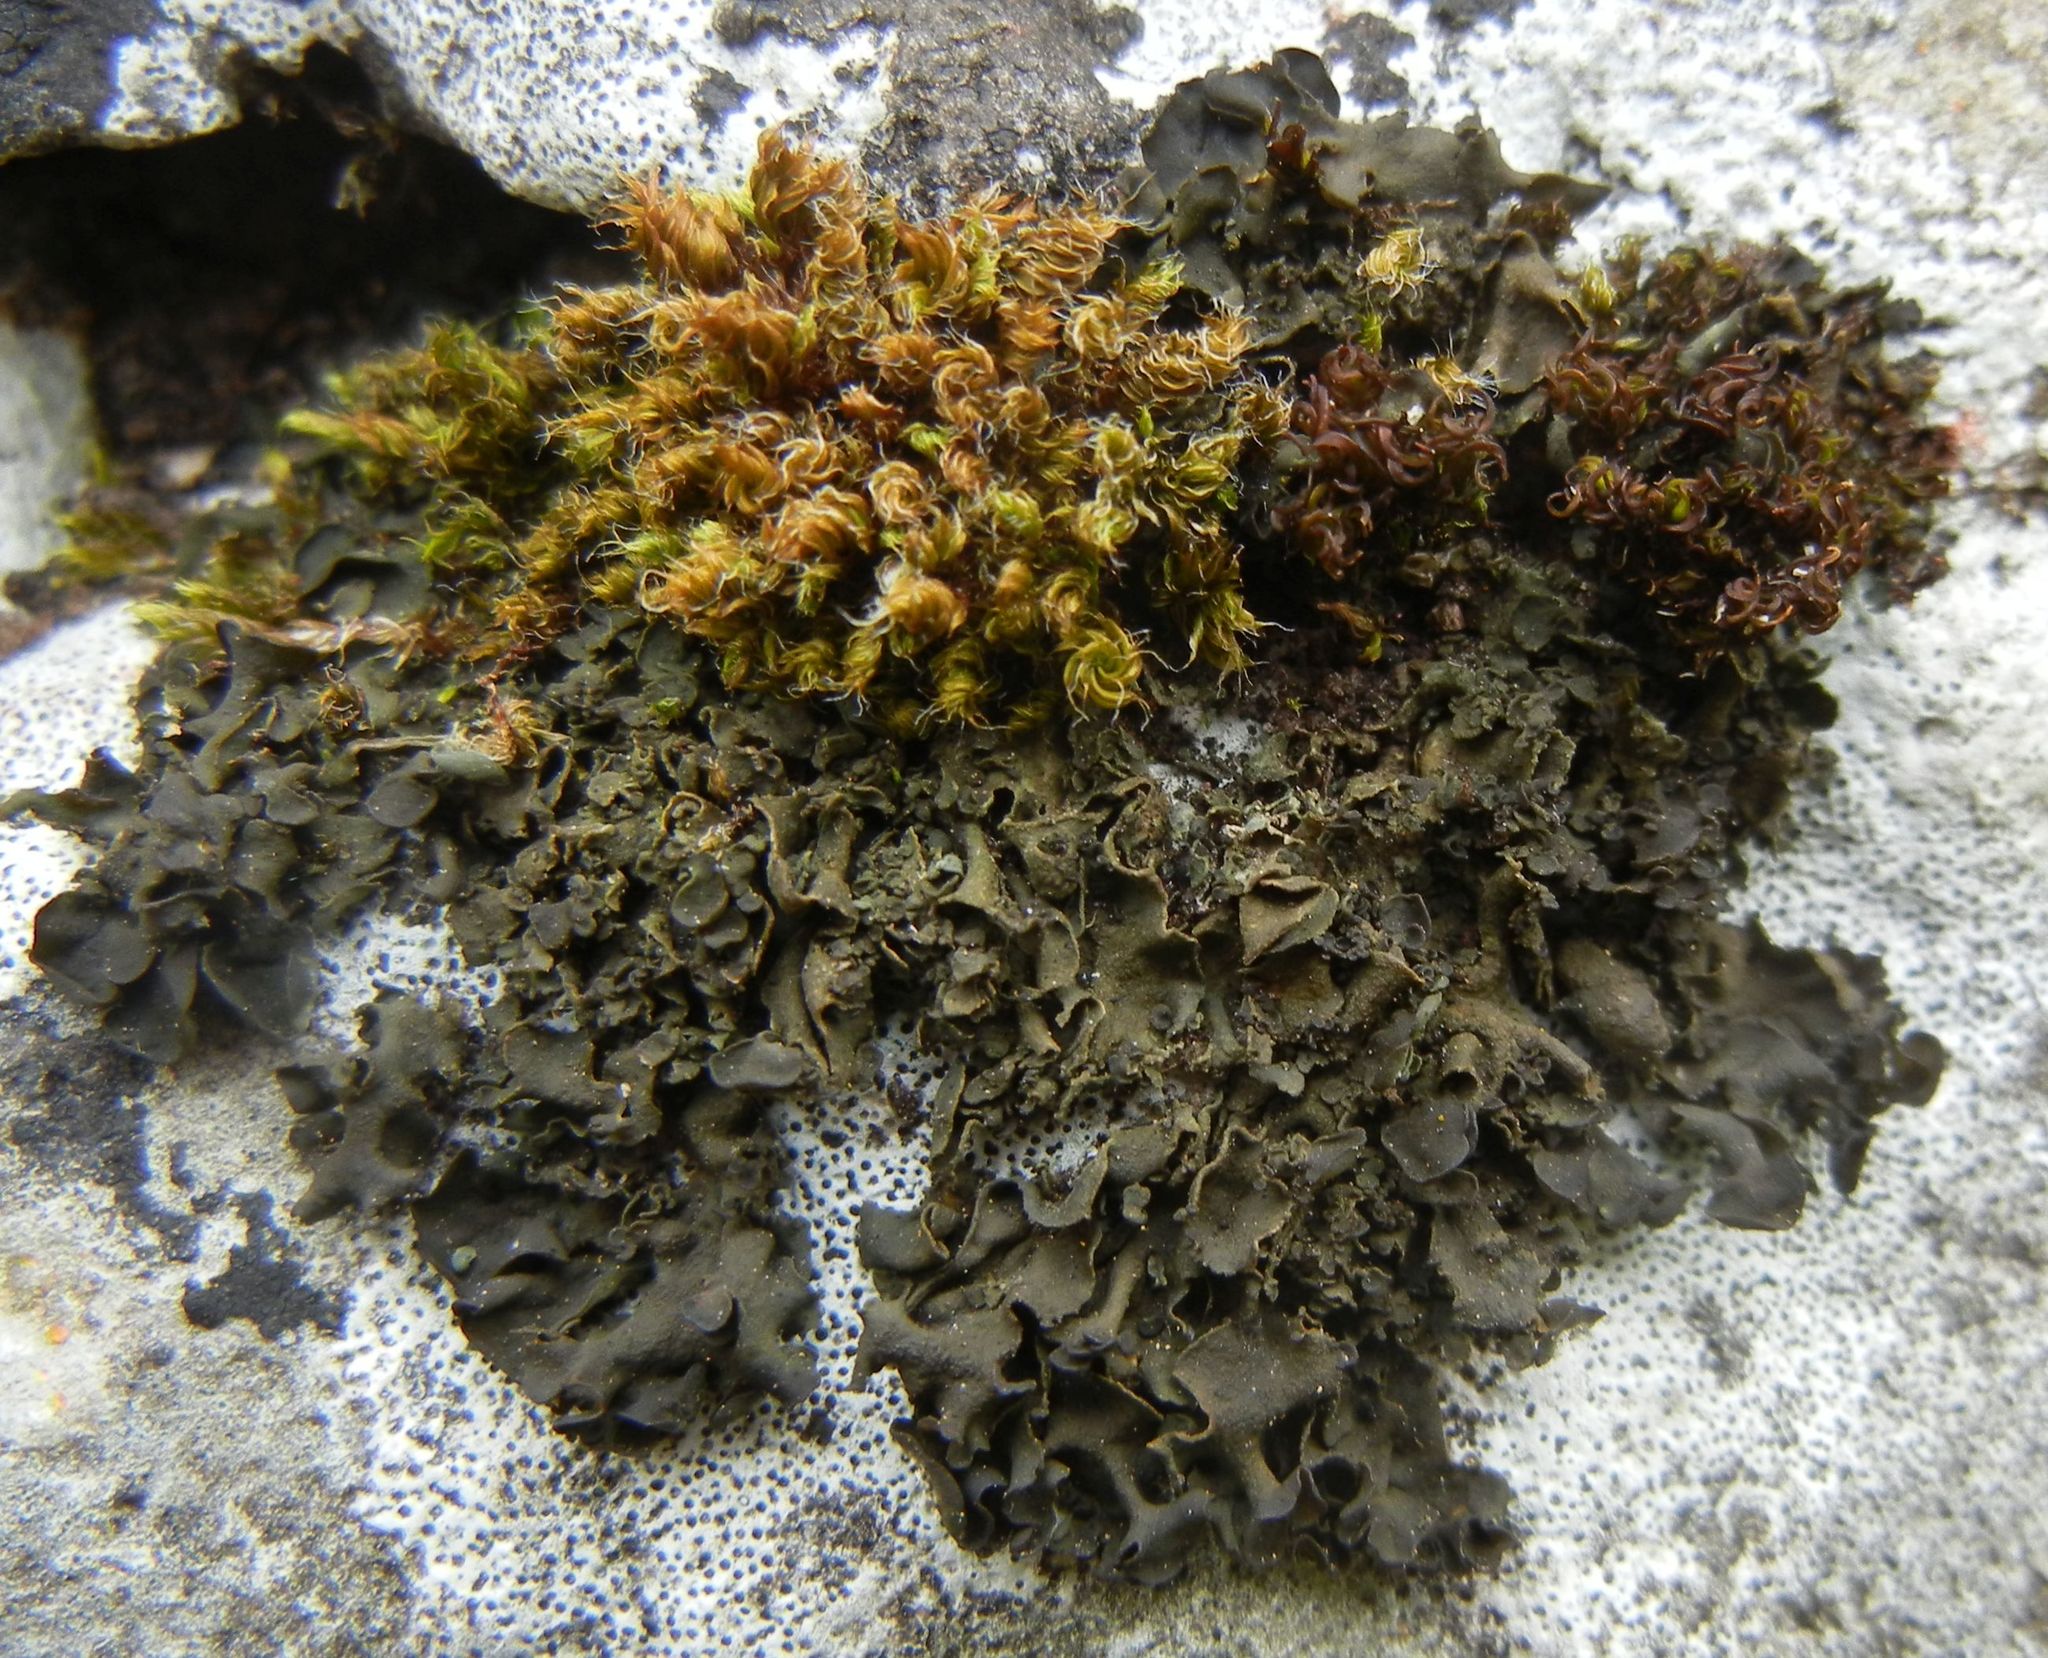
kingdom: Fungi
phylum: Ascomycota
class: Lecanoromycetes
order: Peltigerales
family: Collemataceae
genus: Blennothallia
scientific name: Blennothallia crispa
